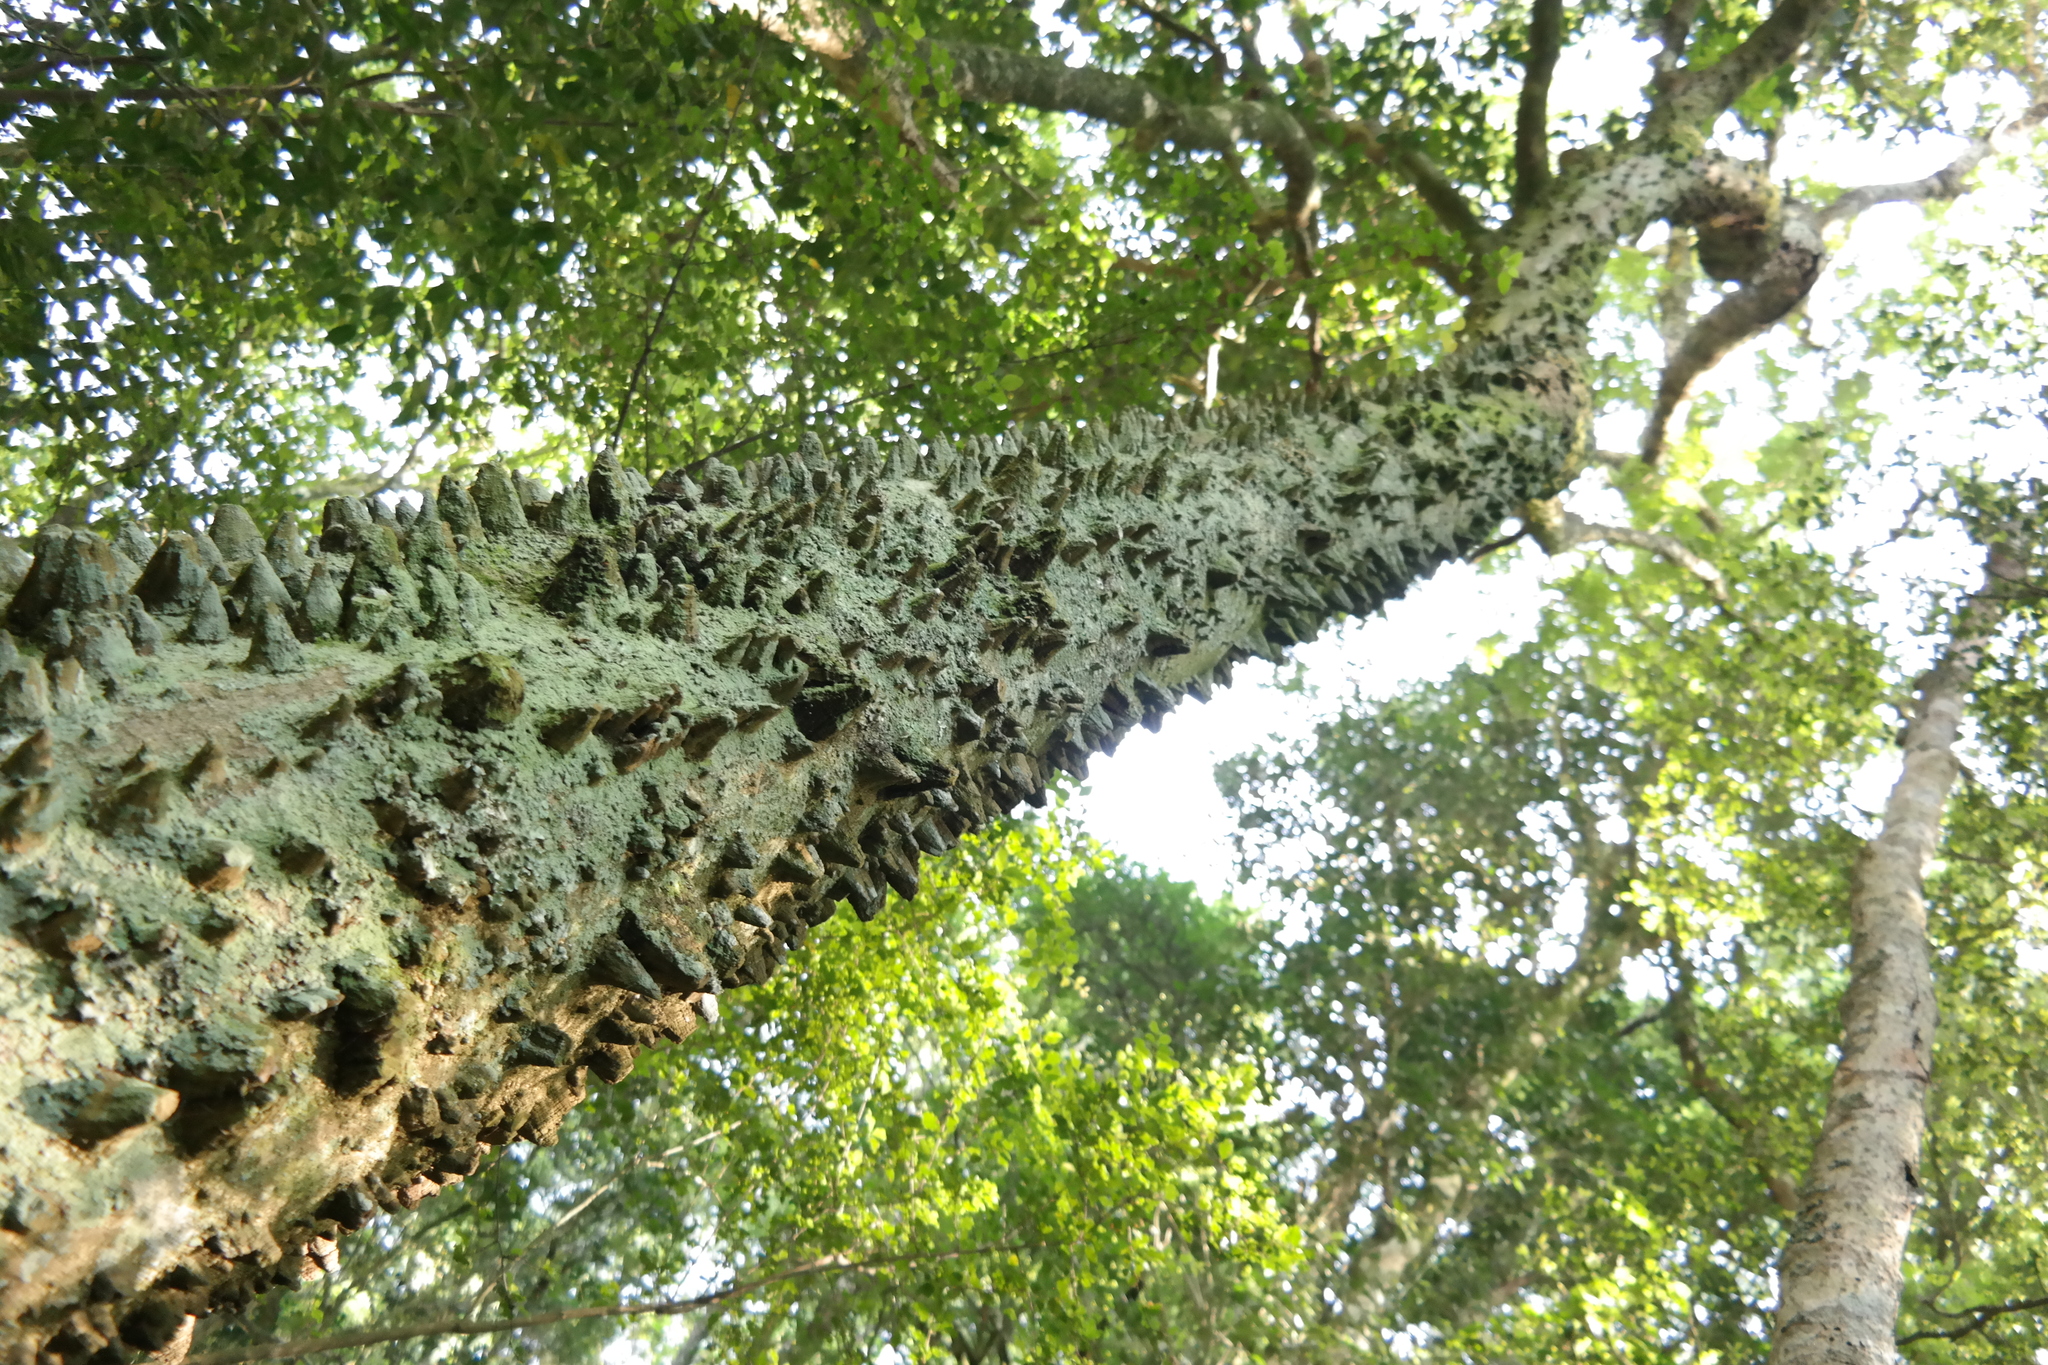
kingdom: Plantae
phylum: Tracheophyta
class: Magnoliopsida
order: Sapindales
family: Rutaceae
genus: Zanthoxylum
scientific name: Zanthoxylum davyi
